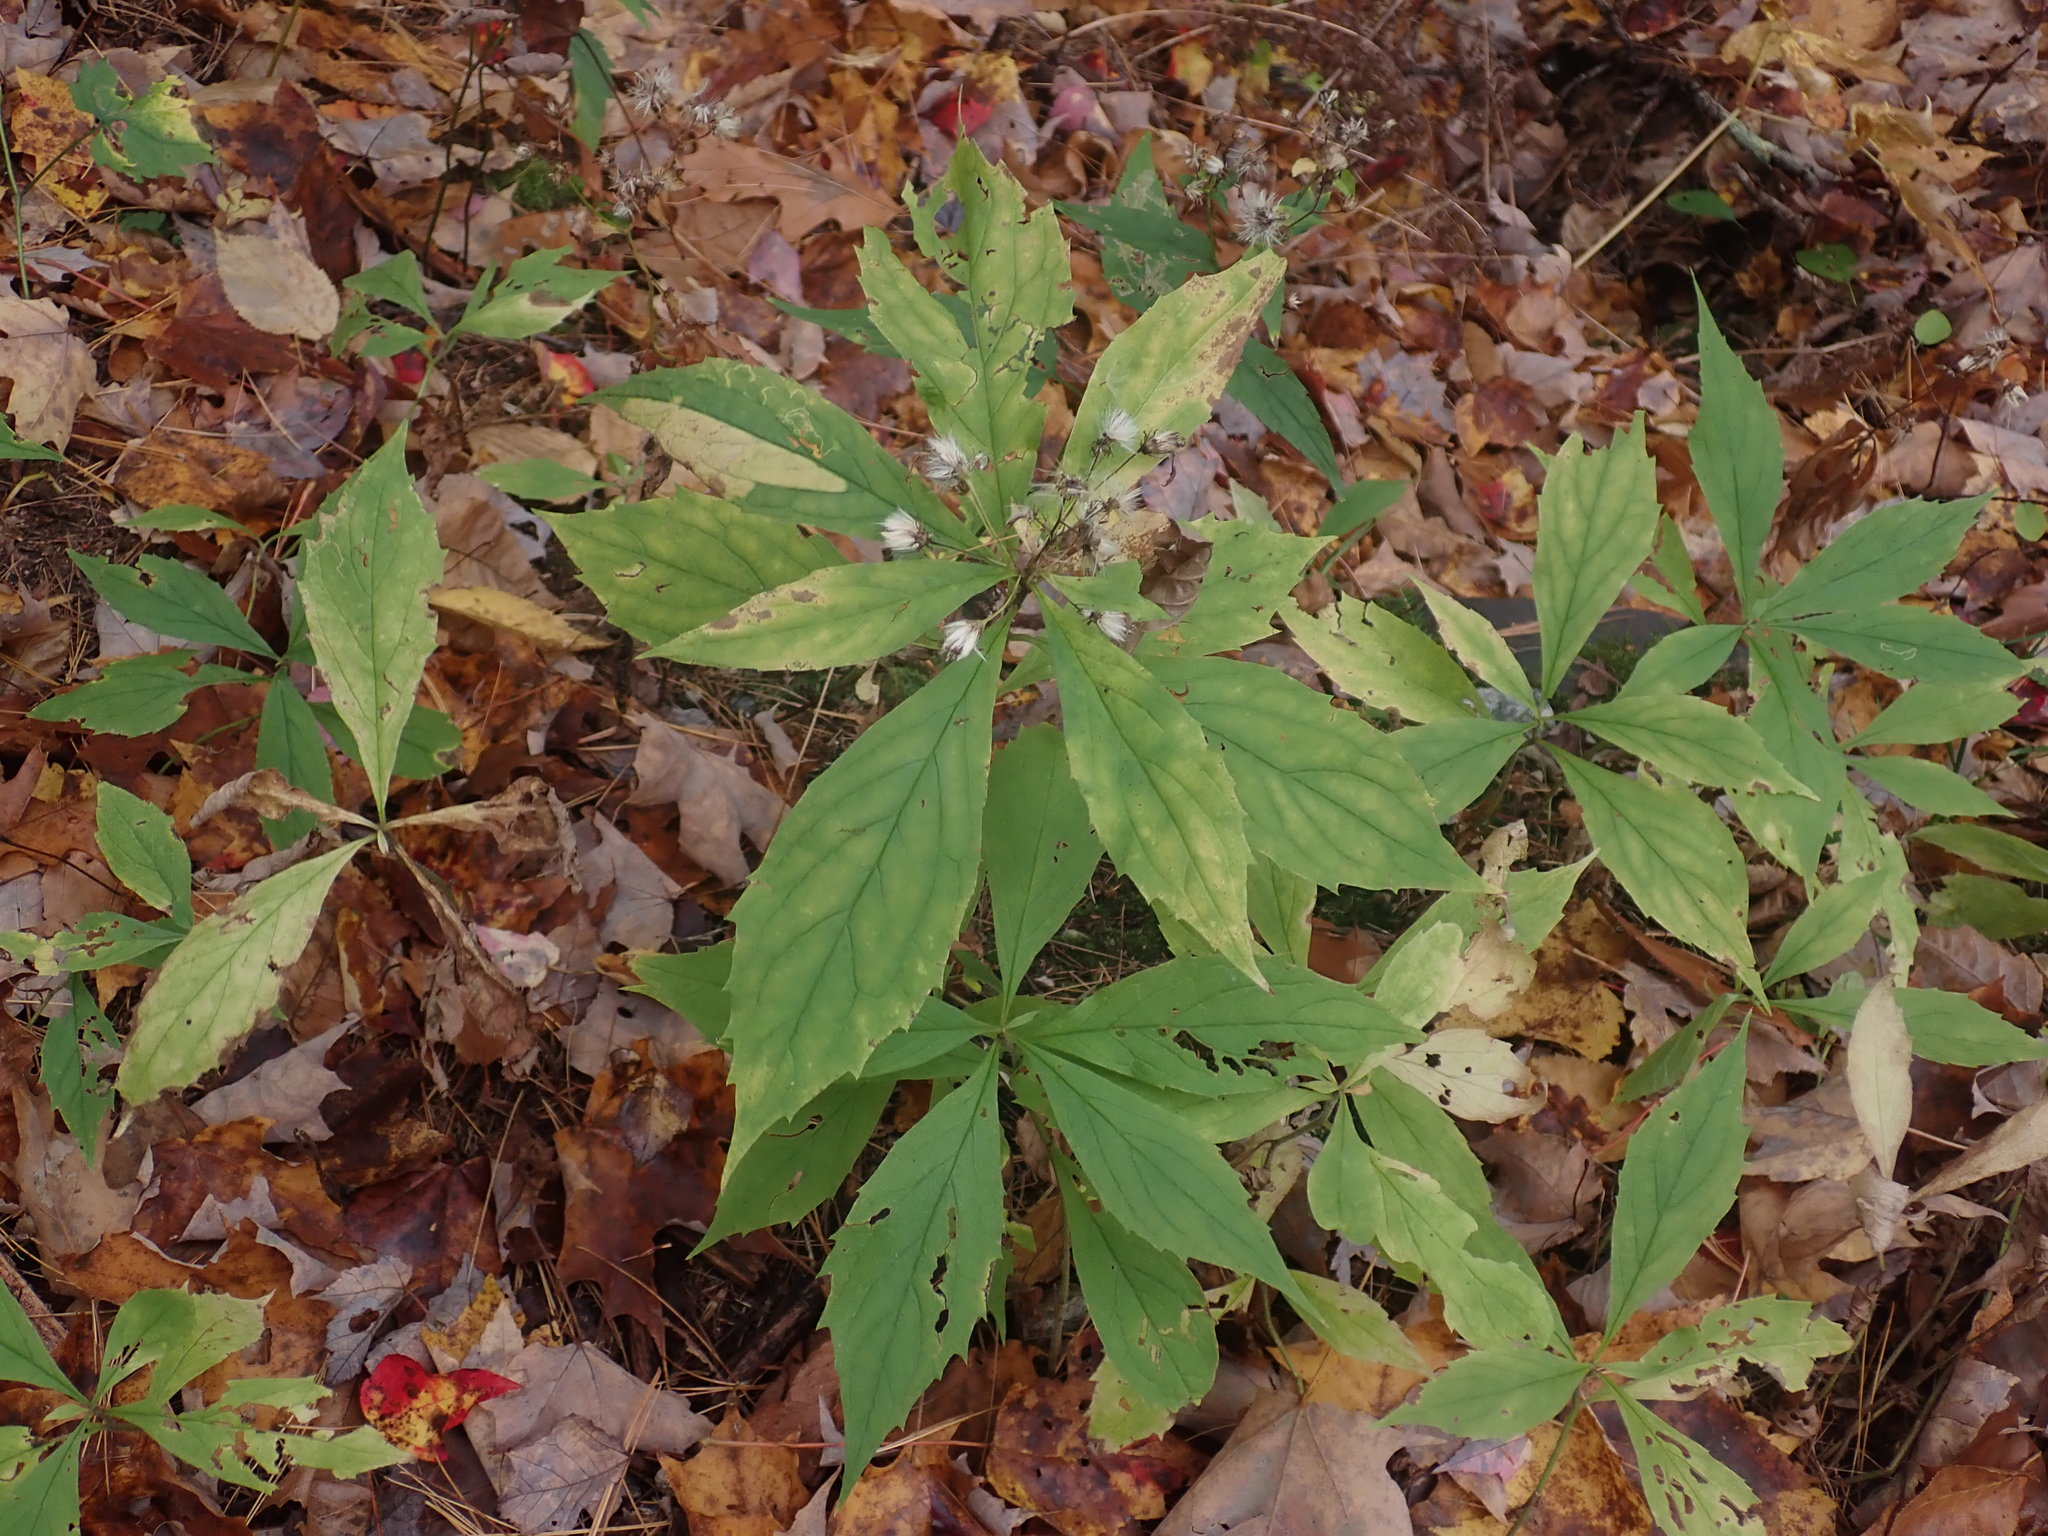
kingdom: Plantae
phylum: Tracheophyta
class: Magnoliopsida
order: Asterales
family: Asteraceae
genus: Oclemena
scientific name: Oclemena acuminata
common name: Mountain aster
